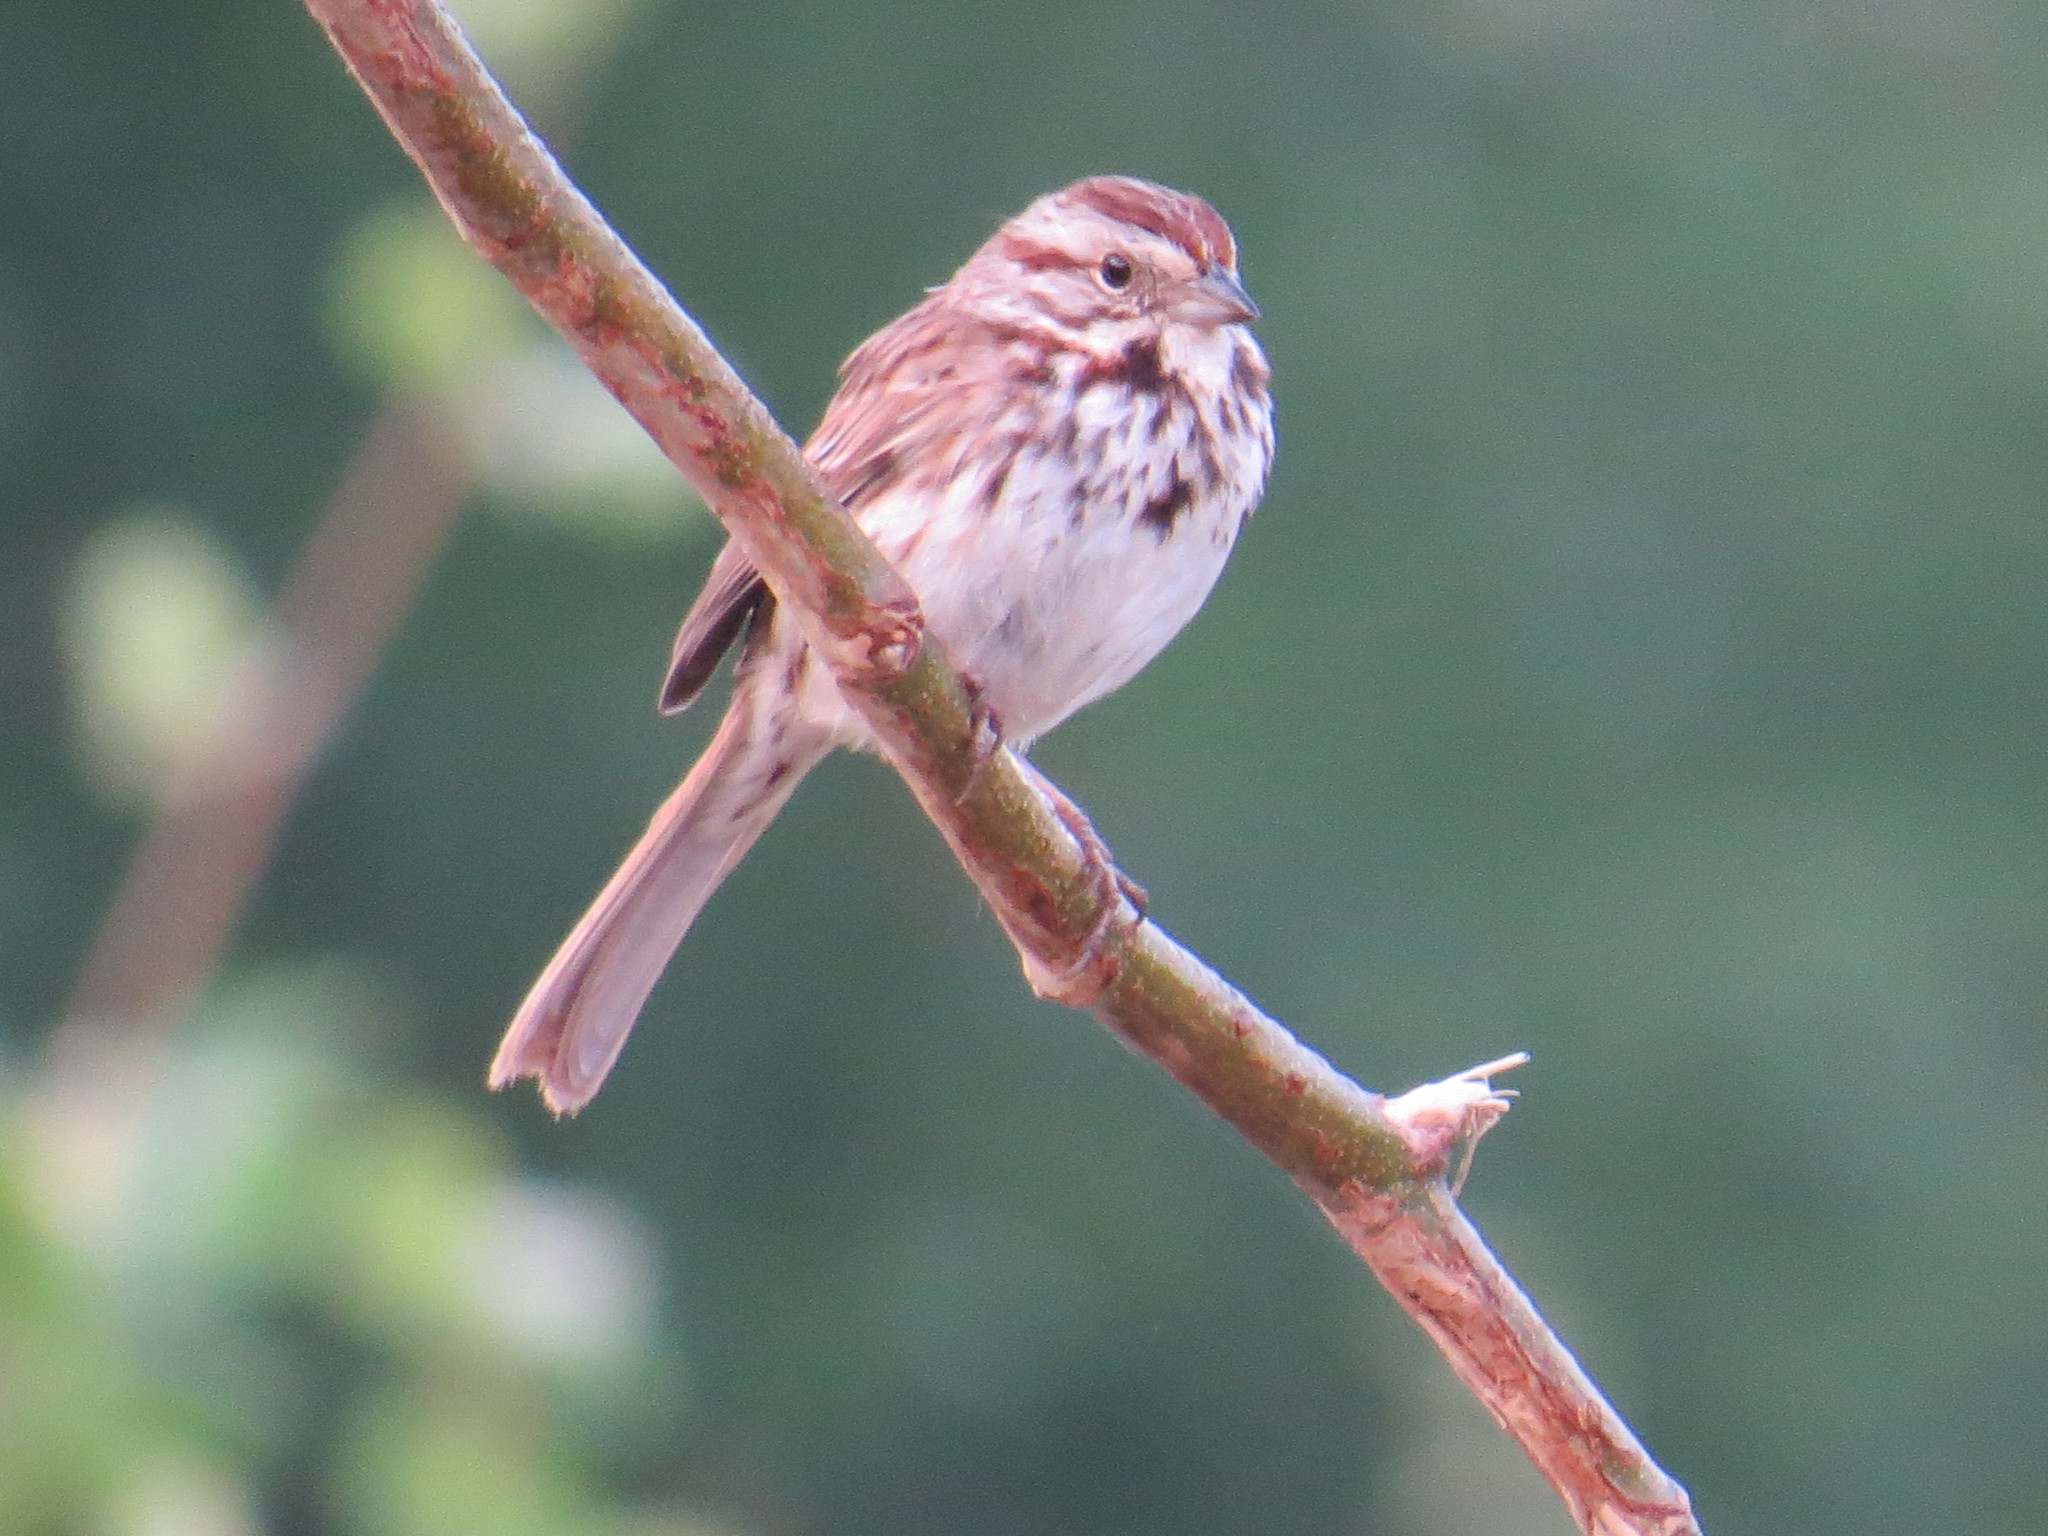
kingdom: Animalia
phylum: Chordata
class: Aves
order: Passeriformes
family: Passerellidae
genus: Melospiza
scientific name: Melospiza melodia
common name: Song sparrow
